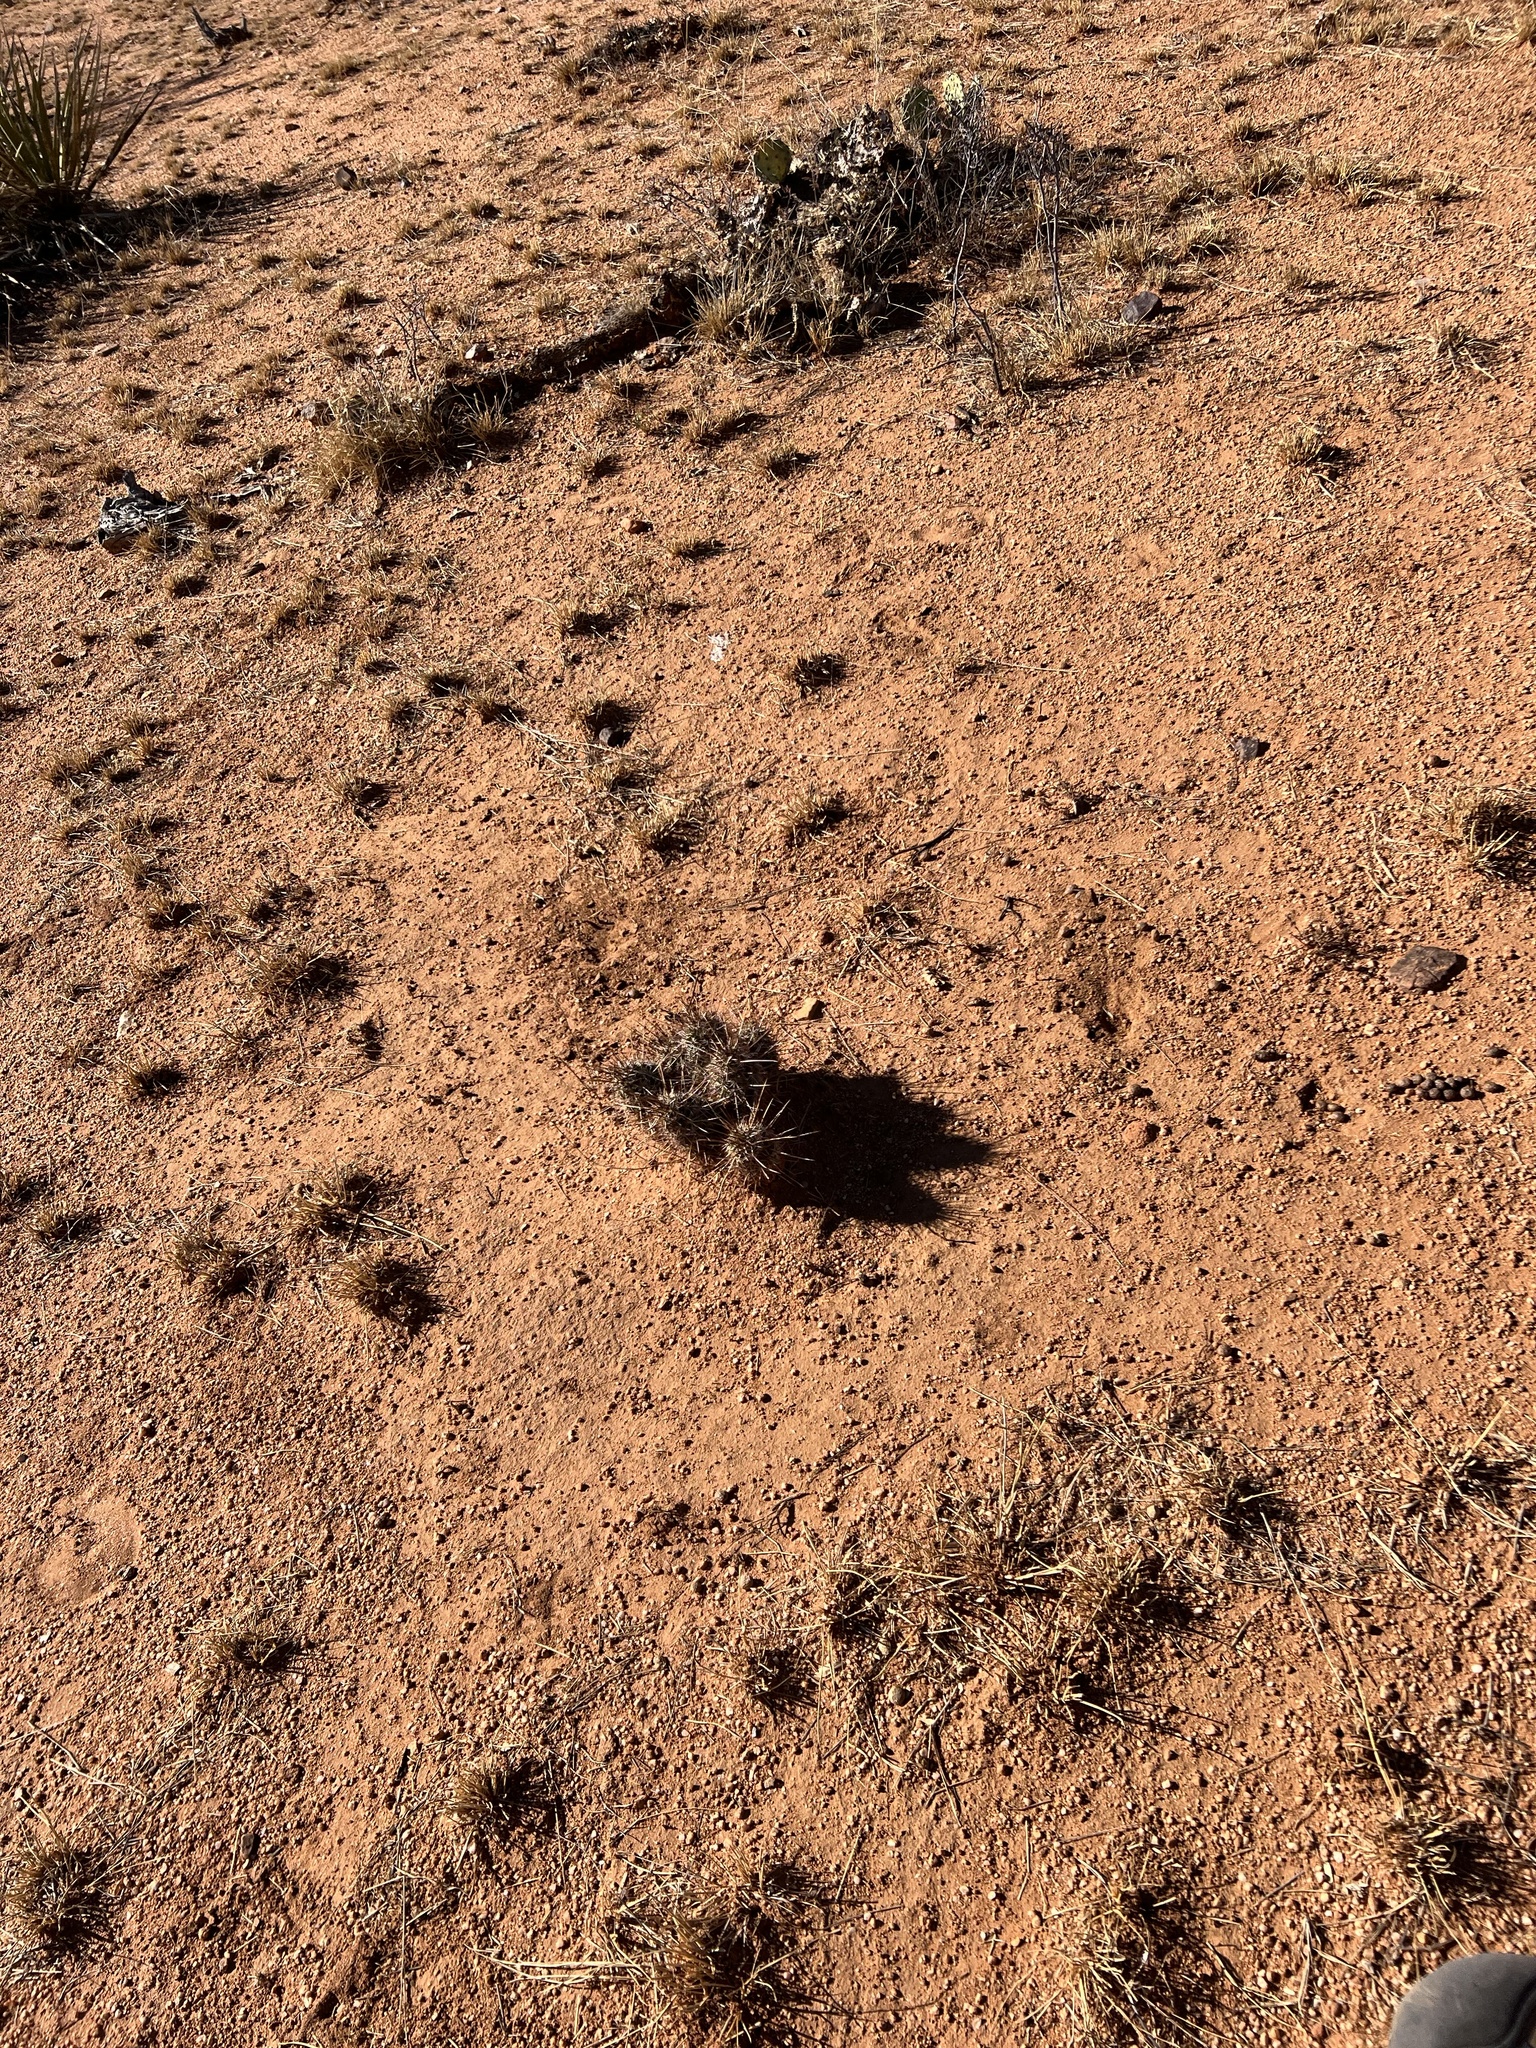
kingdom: Plantae
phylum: Tracheophyta
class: Magnoliopsida
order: Caryophyllales
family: Cactaceae
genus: Echinocereus
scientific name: Echinocereus fasciculatus
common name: Bundle hedgehog
